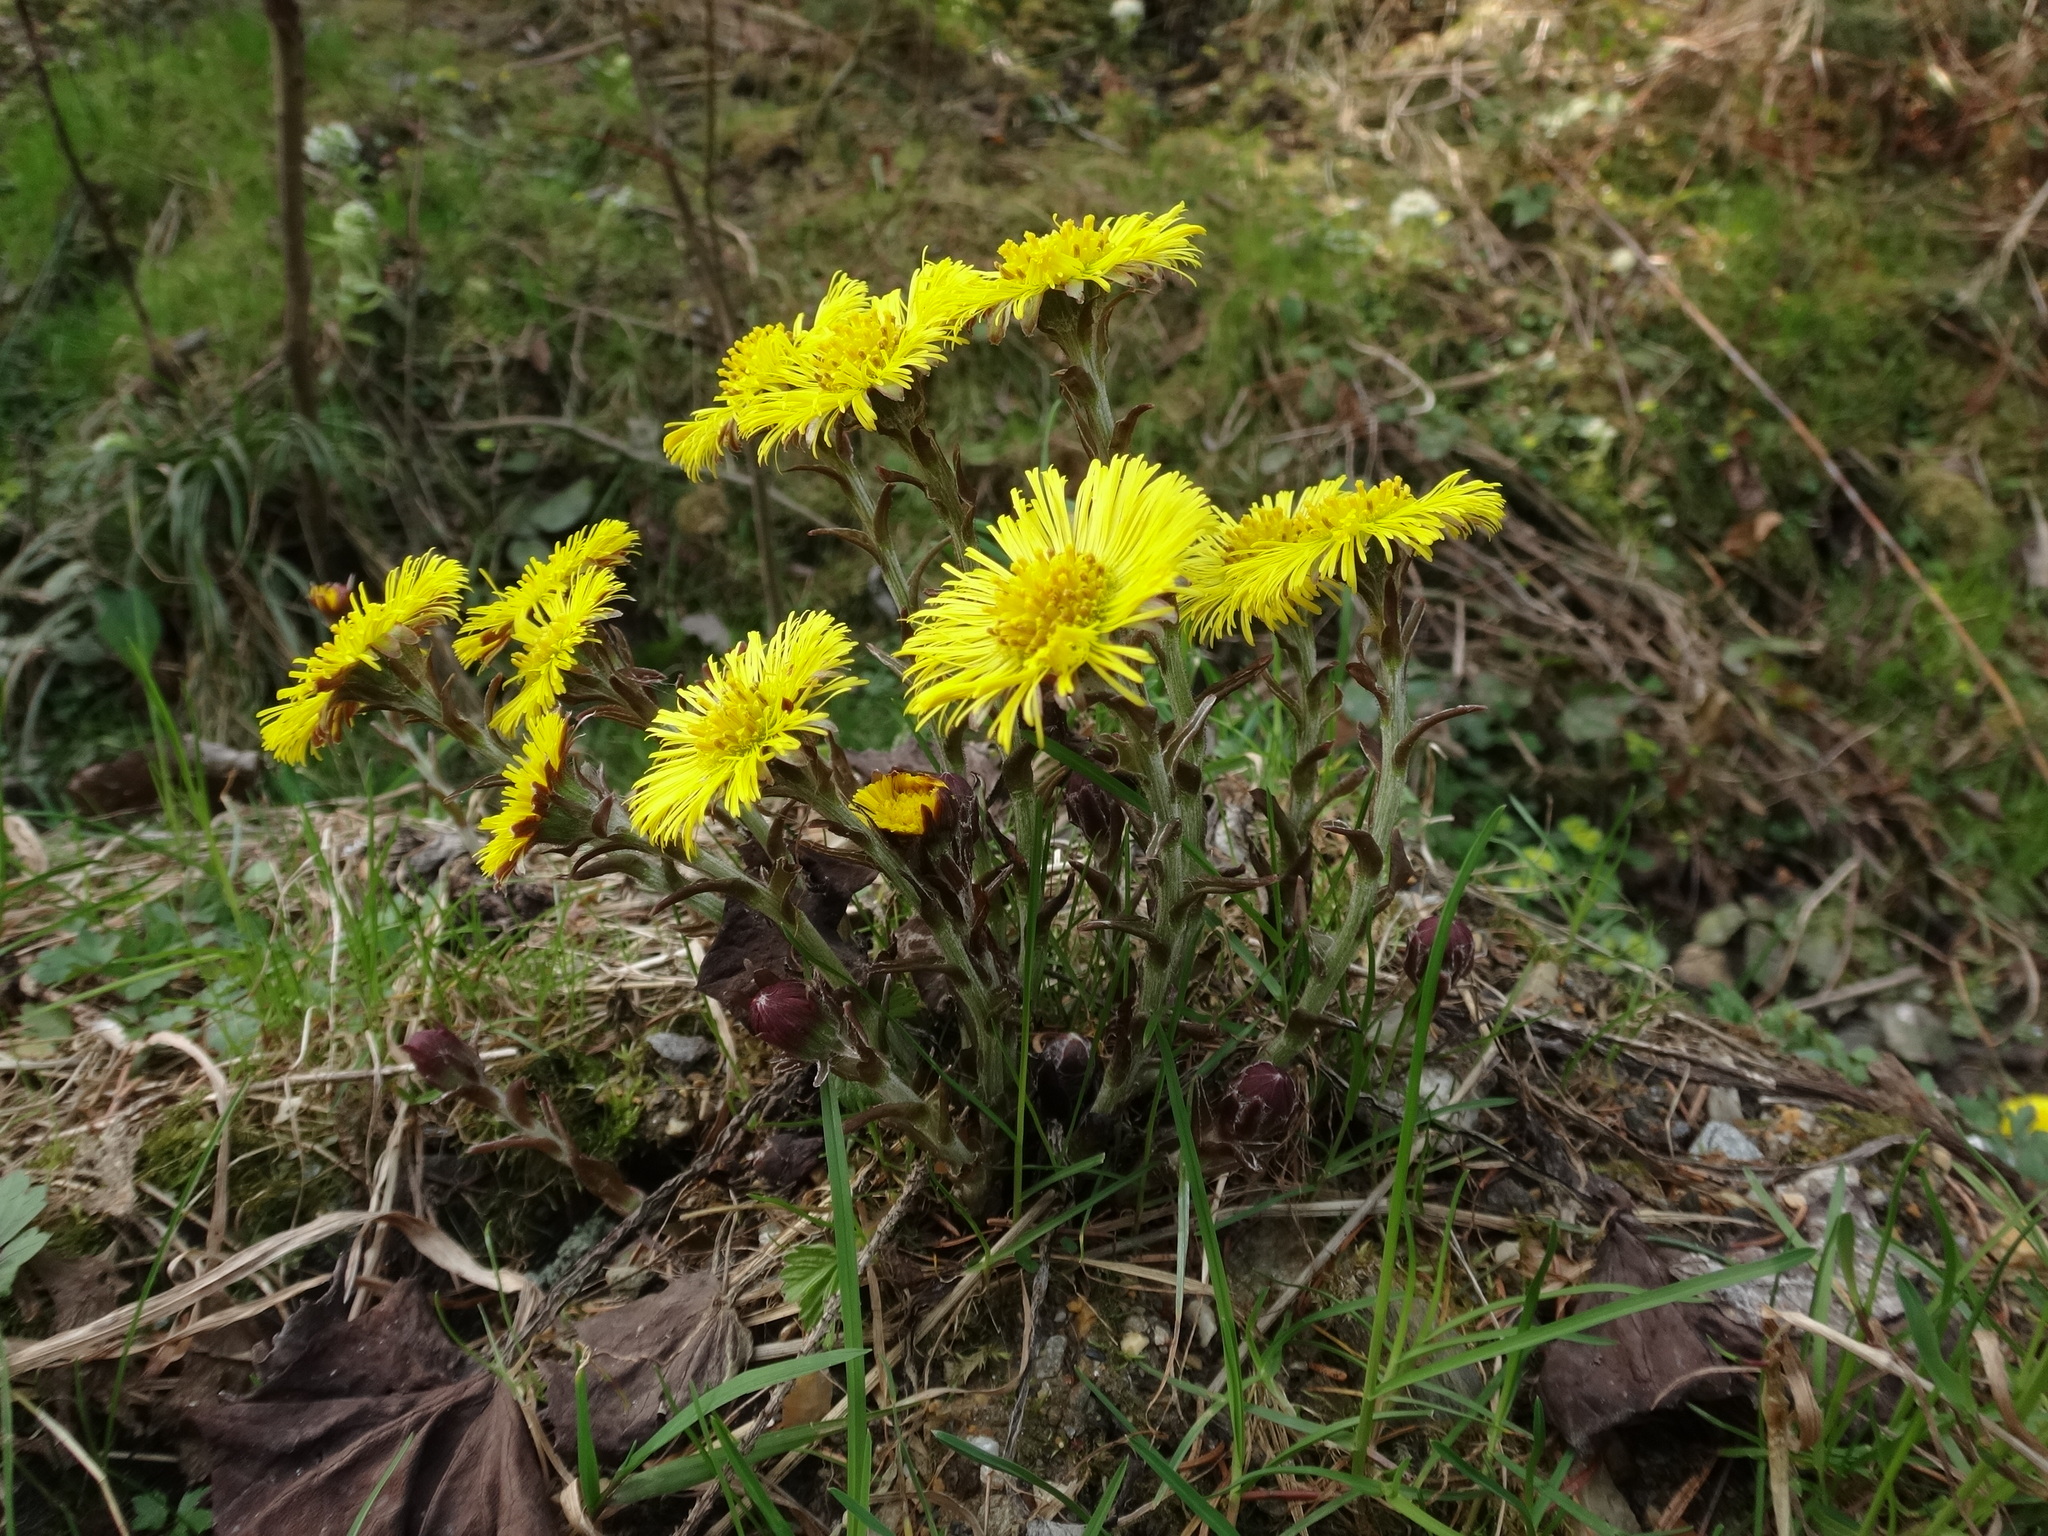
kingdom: Plantae
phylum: Tracheophyta
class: Magnoliopsida
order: Asterales
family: Asteraceae
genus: Tussilago
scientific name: Tussilago farfara
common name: Coltsfoot
